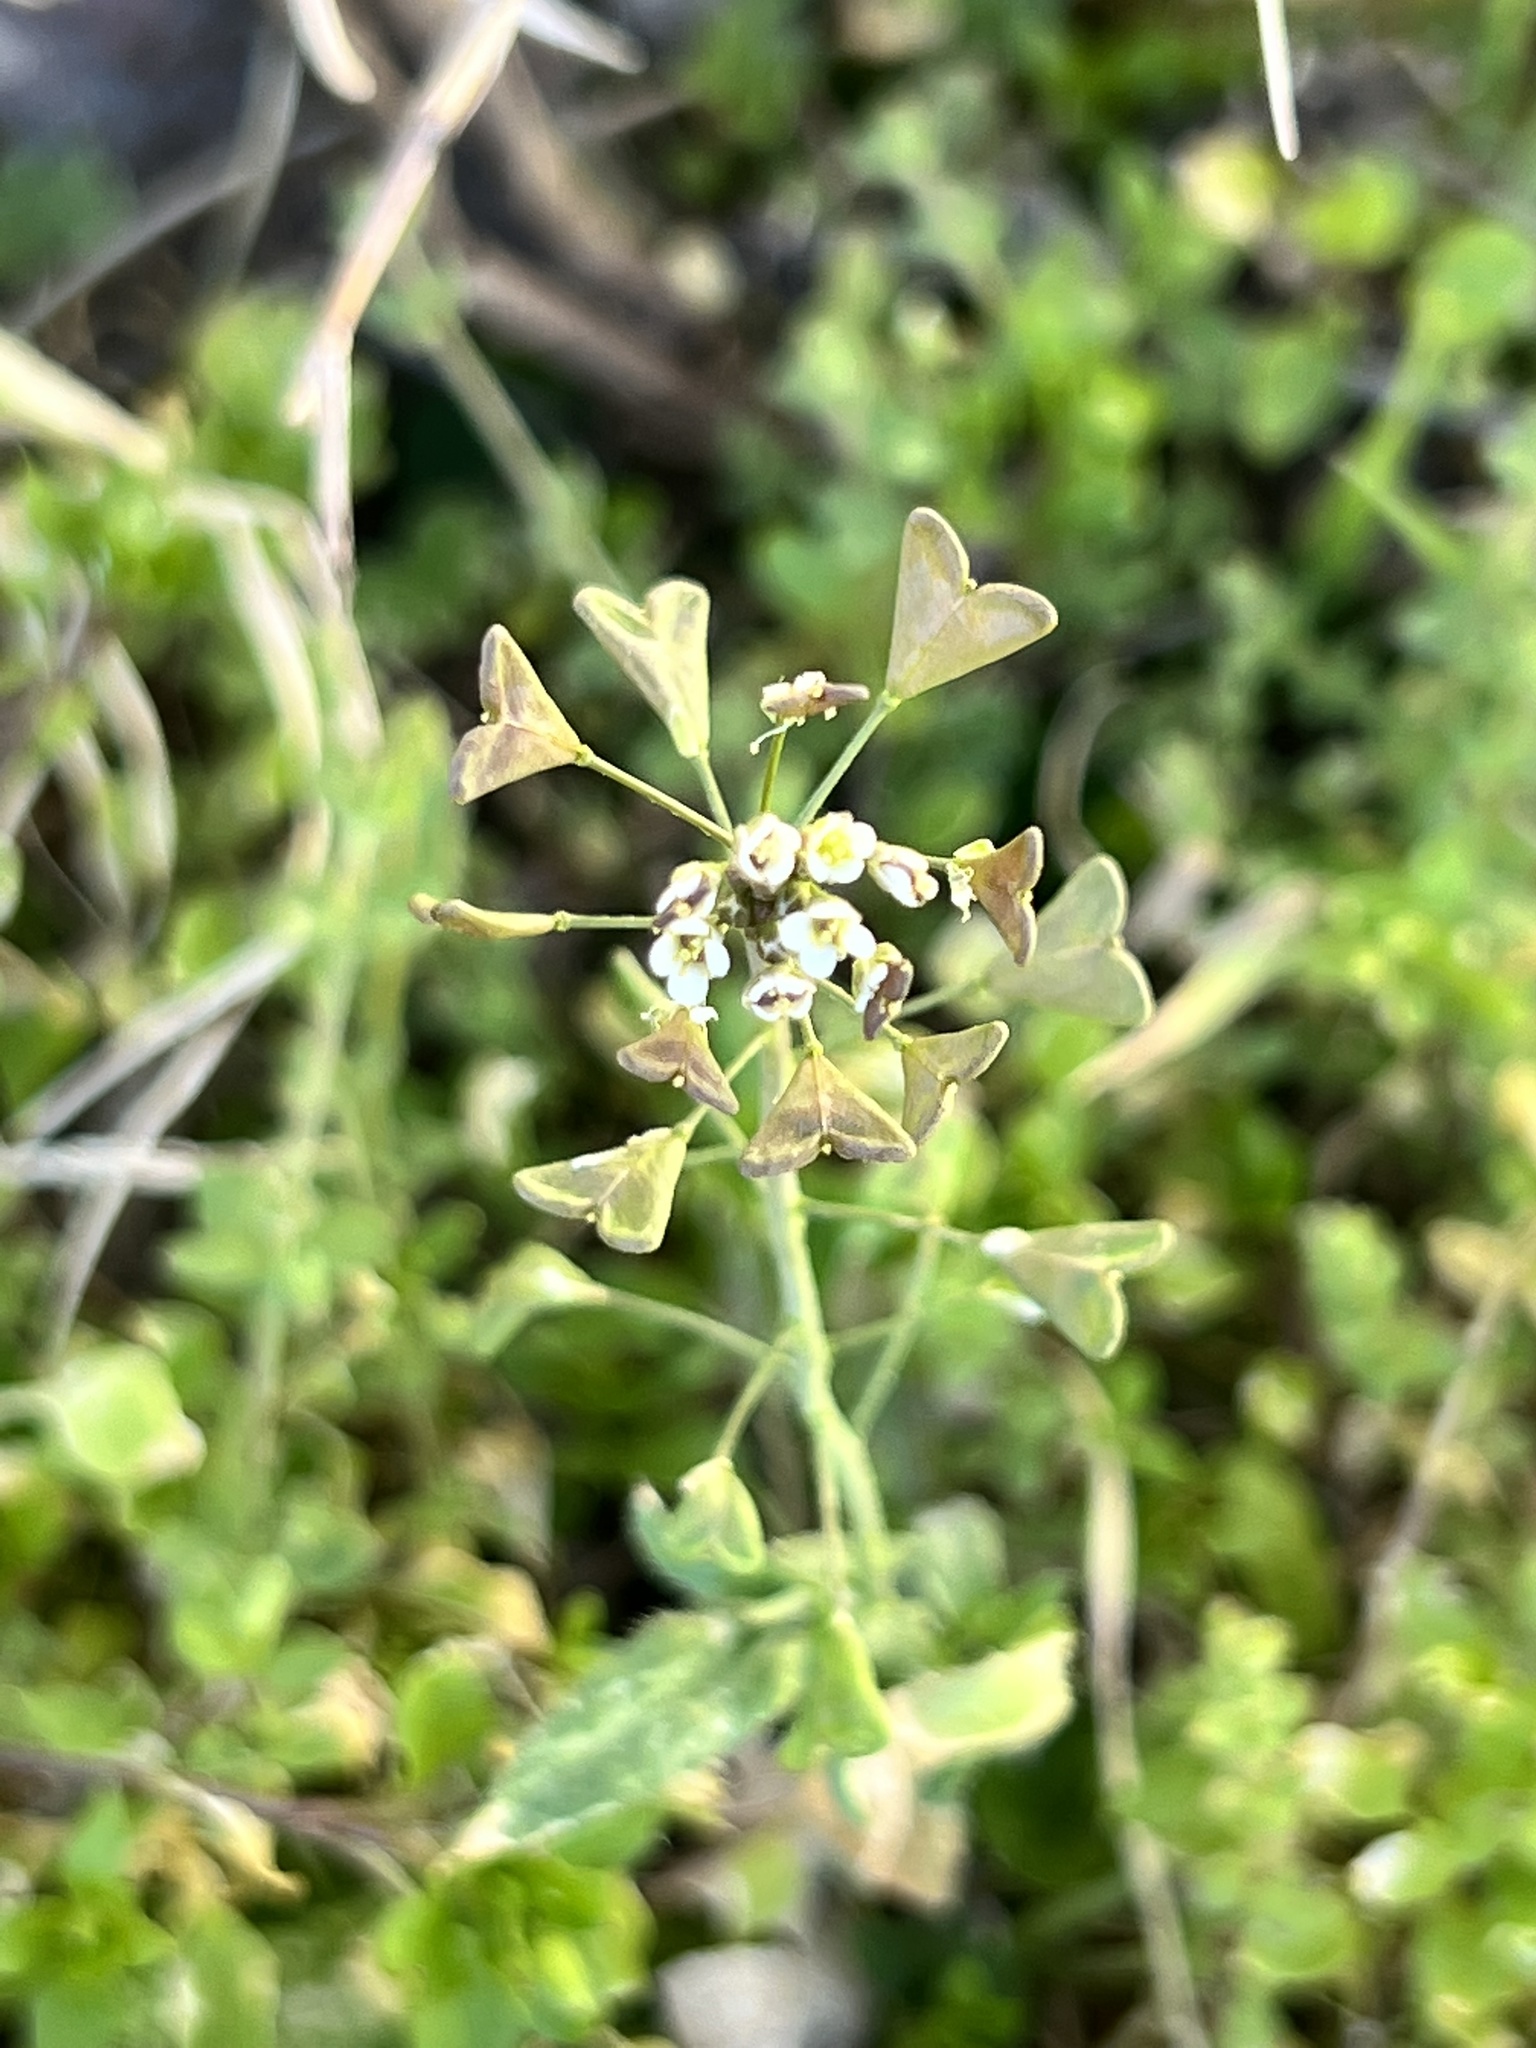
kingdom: Plantae
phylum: Tracheophyta
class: Magnoliopsida
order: Brassicales
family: Brassicaceae
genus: Capsella
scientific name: Capsella bursa-pastoris
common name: Shepherd's purse
